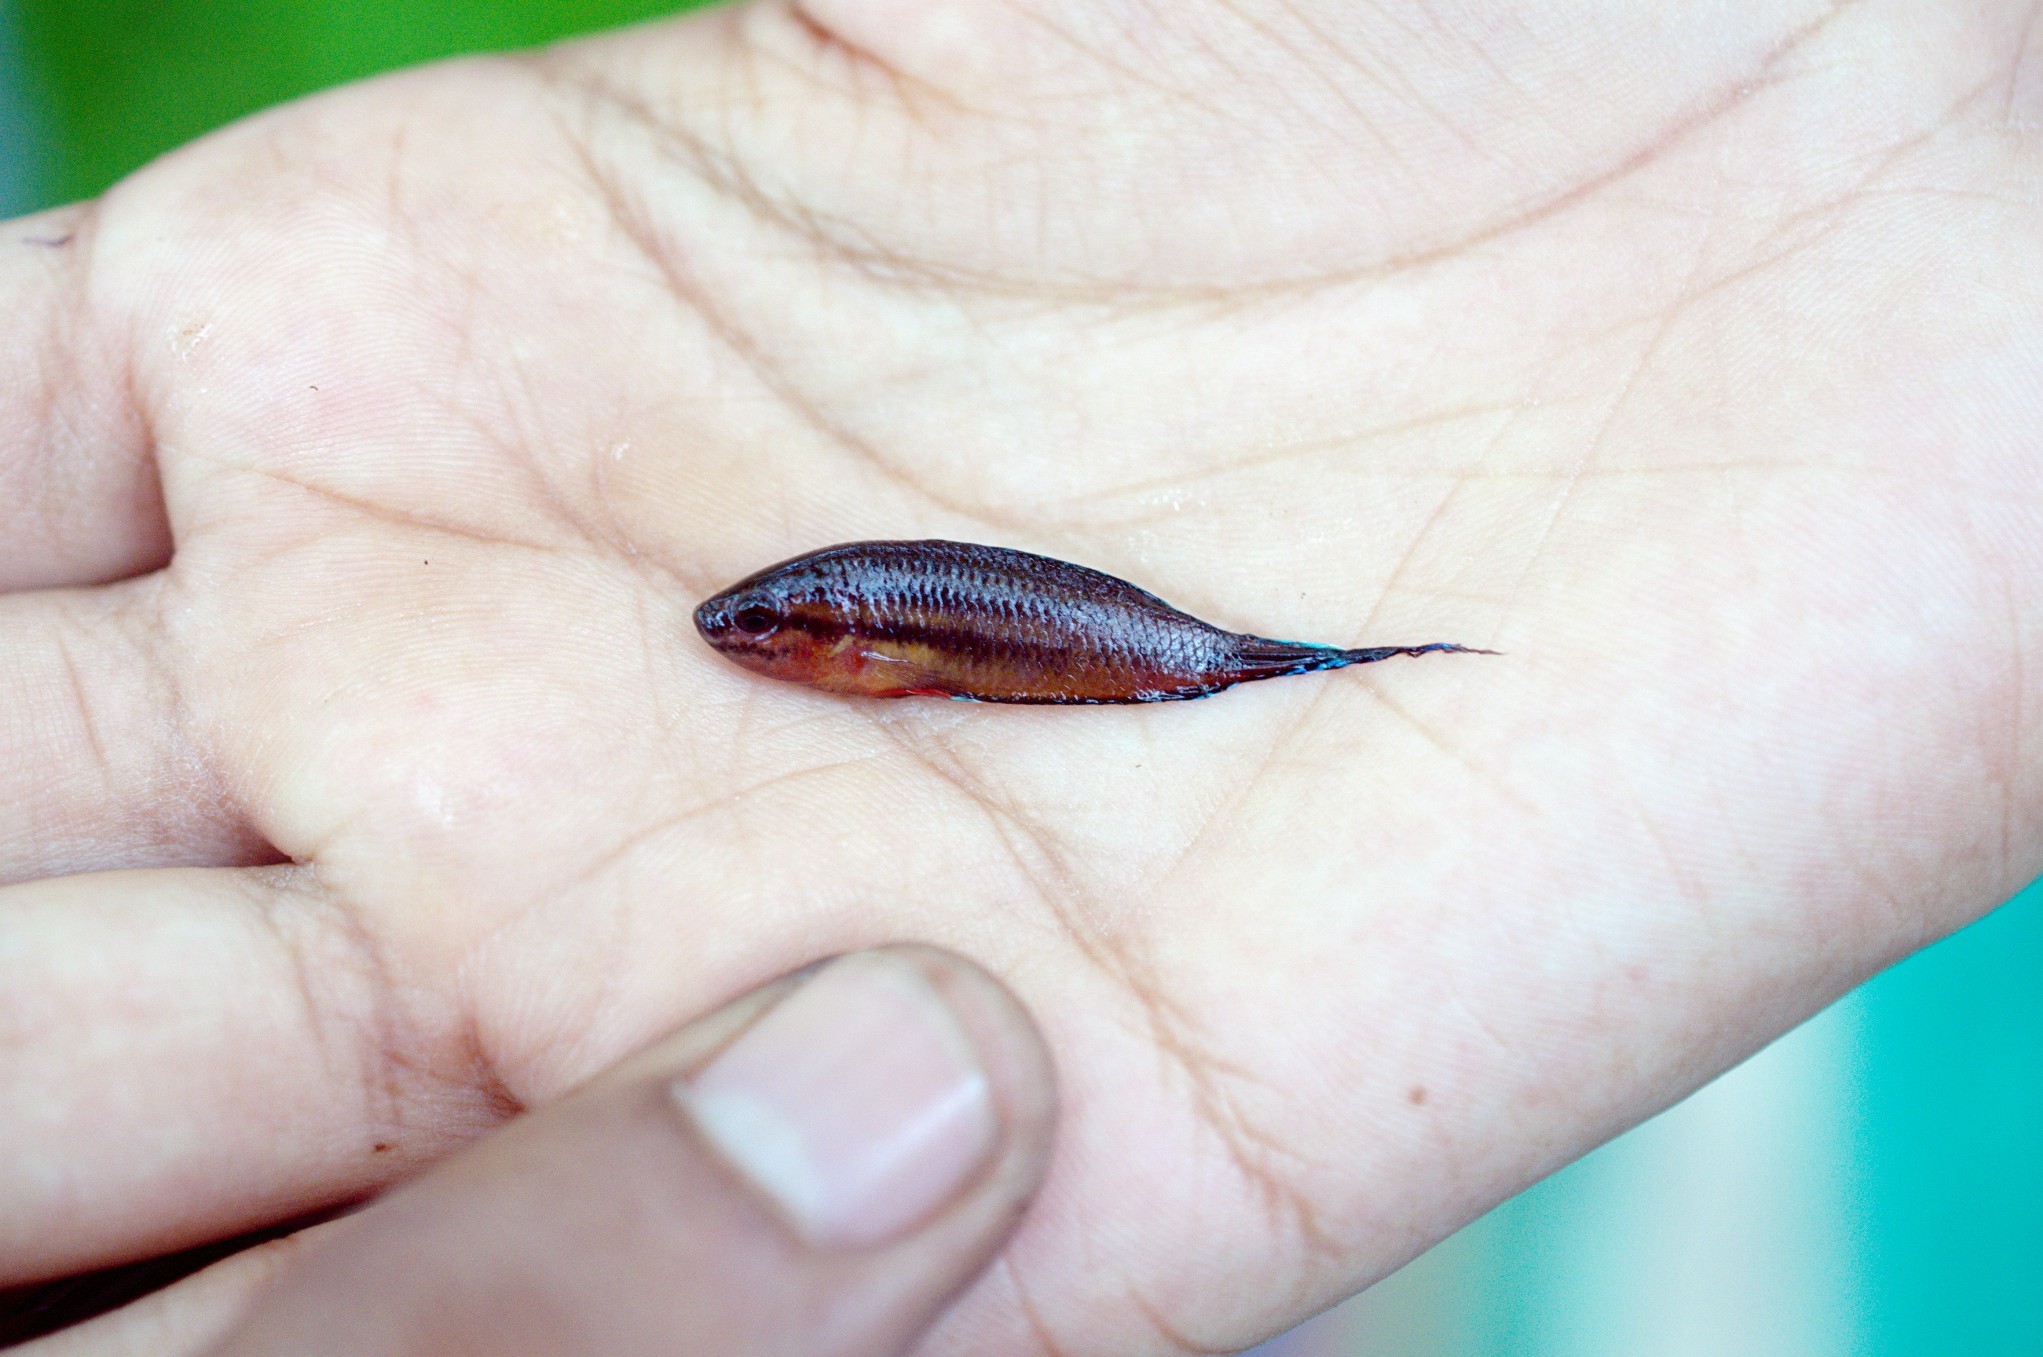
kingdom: Animalia
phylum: Chordata
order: Perciformes
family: Osphronemidae
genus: Pseudosphromenus
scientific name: Pseudosphromenus dayi
